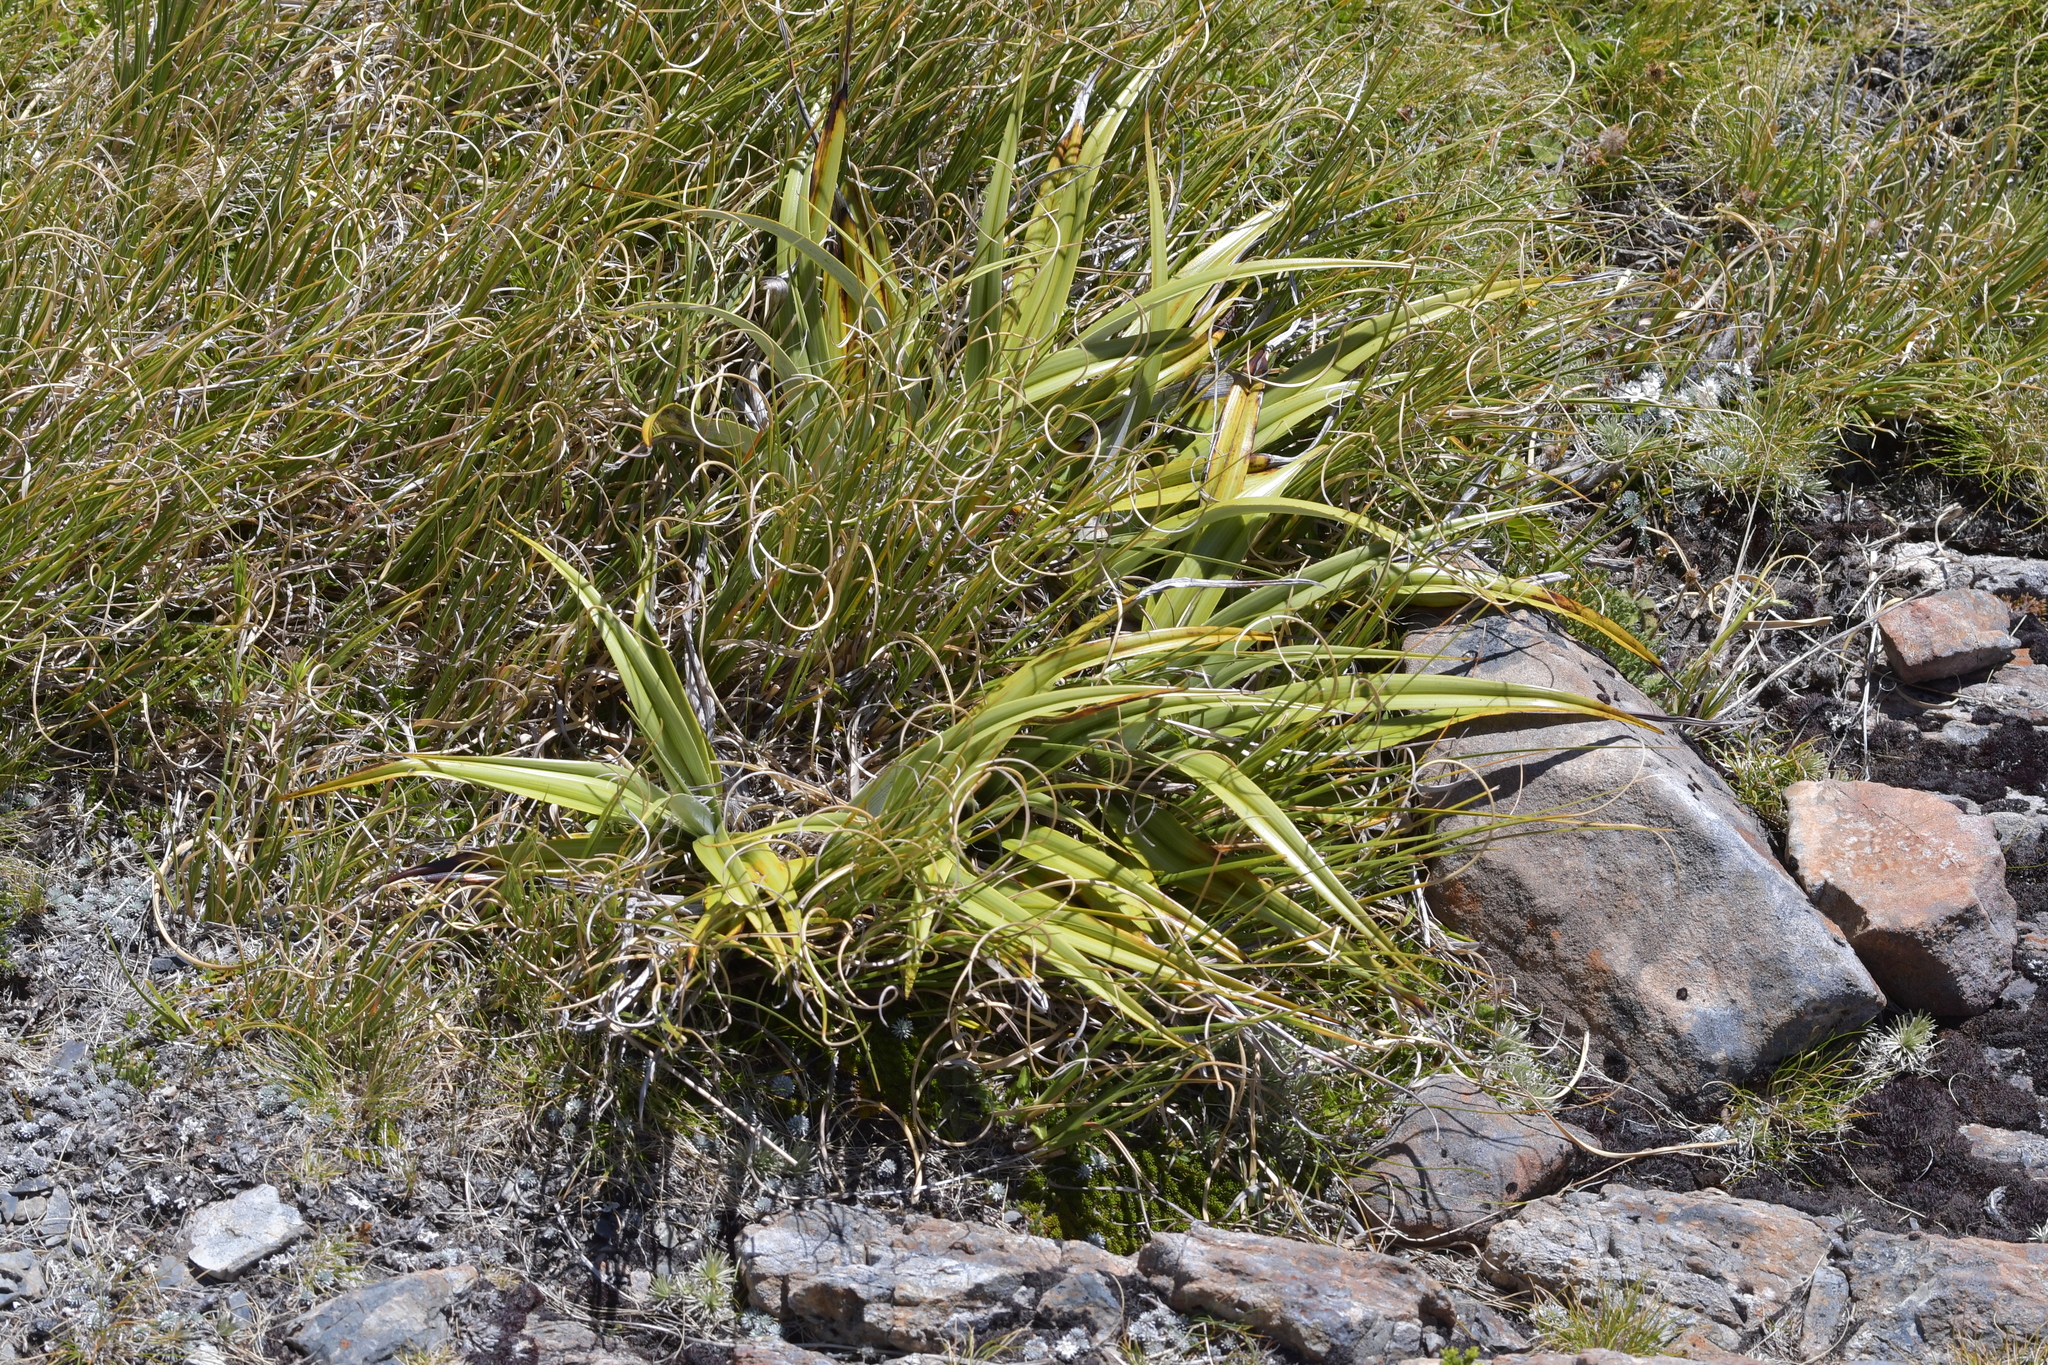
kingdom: Plantae
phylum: Tracheophyta
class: Liliopsida
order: Asparagales
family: Asteliaceae
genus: Astelia
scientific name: Astelia petriei
